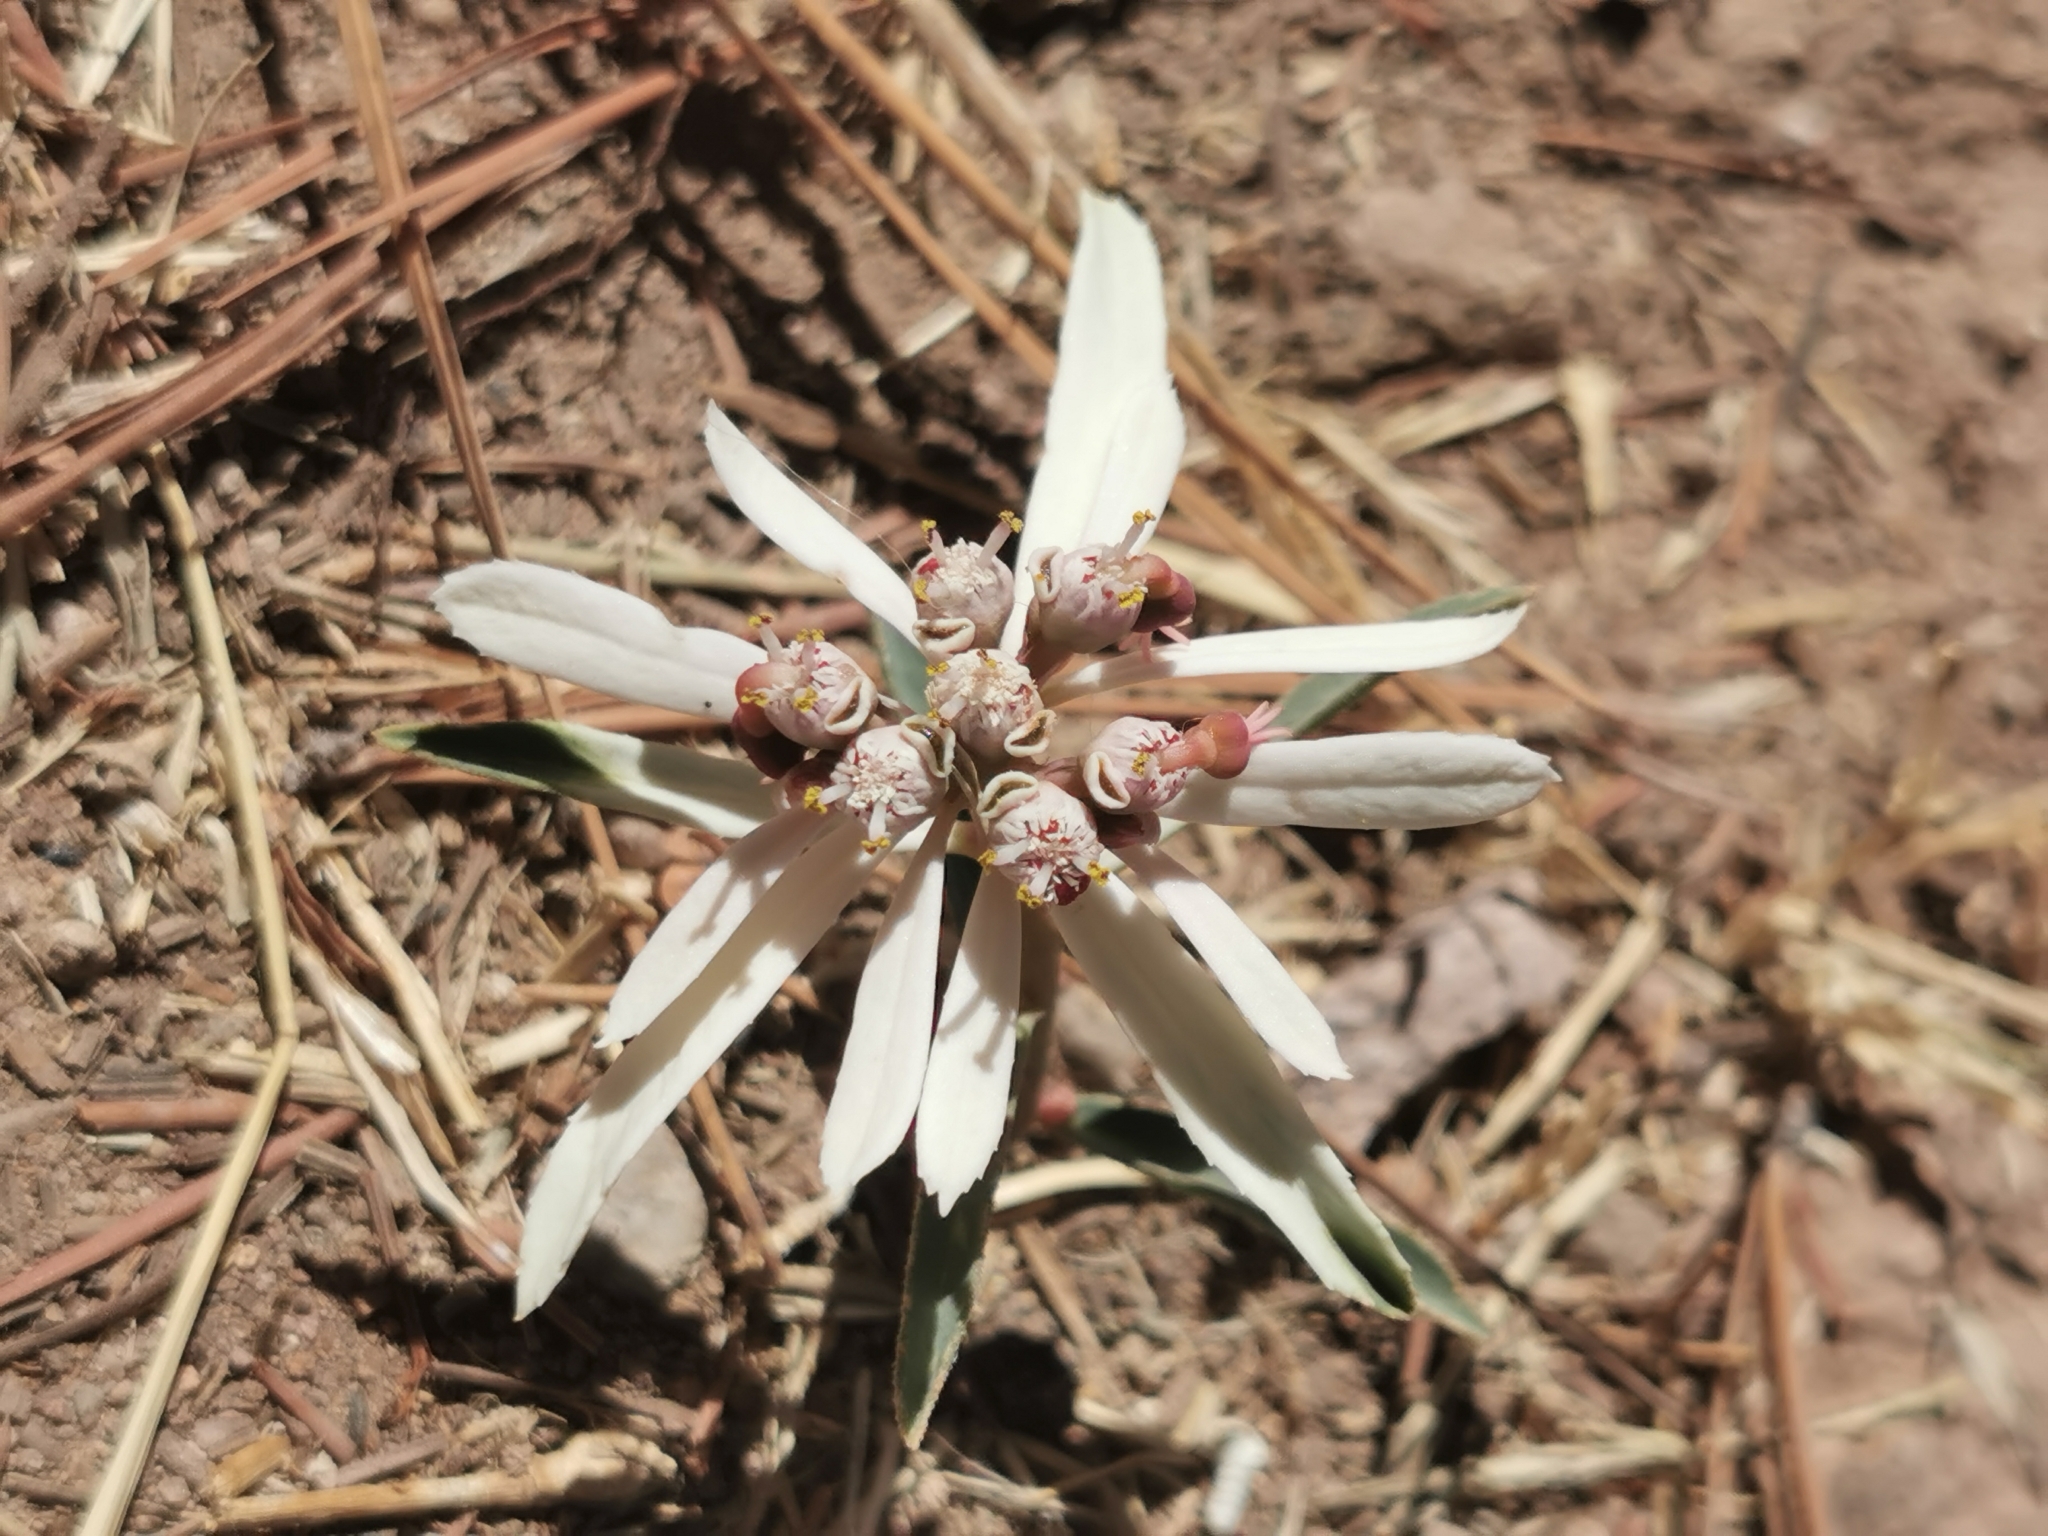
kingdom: Plantae
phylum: Tracheophyta
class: Magnoliopsida
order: Malpighiales
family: Euphorbiaceae
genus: Euphorbia
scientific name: Euphorbia radians
